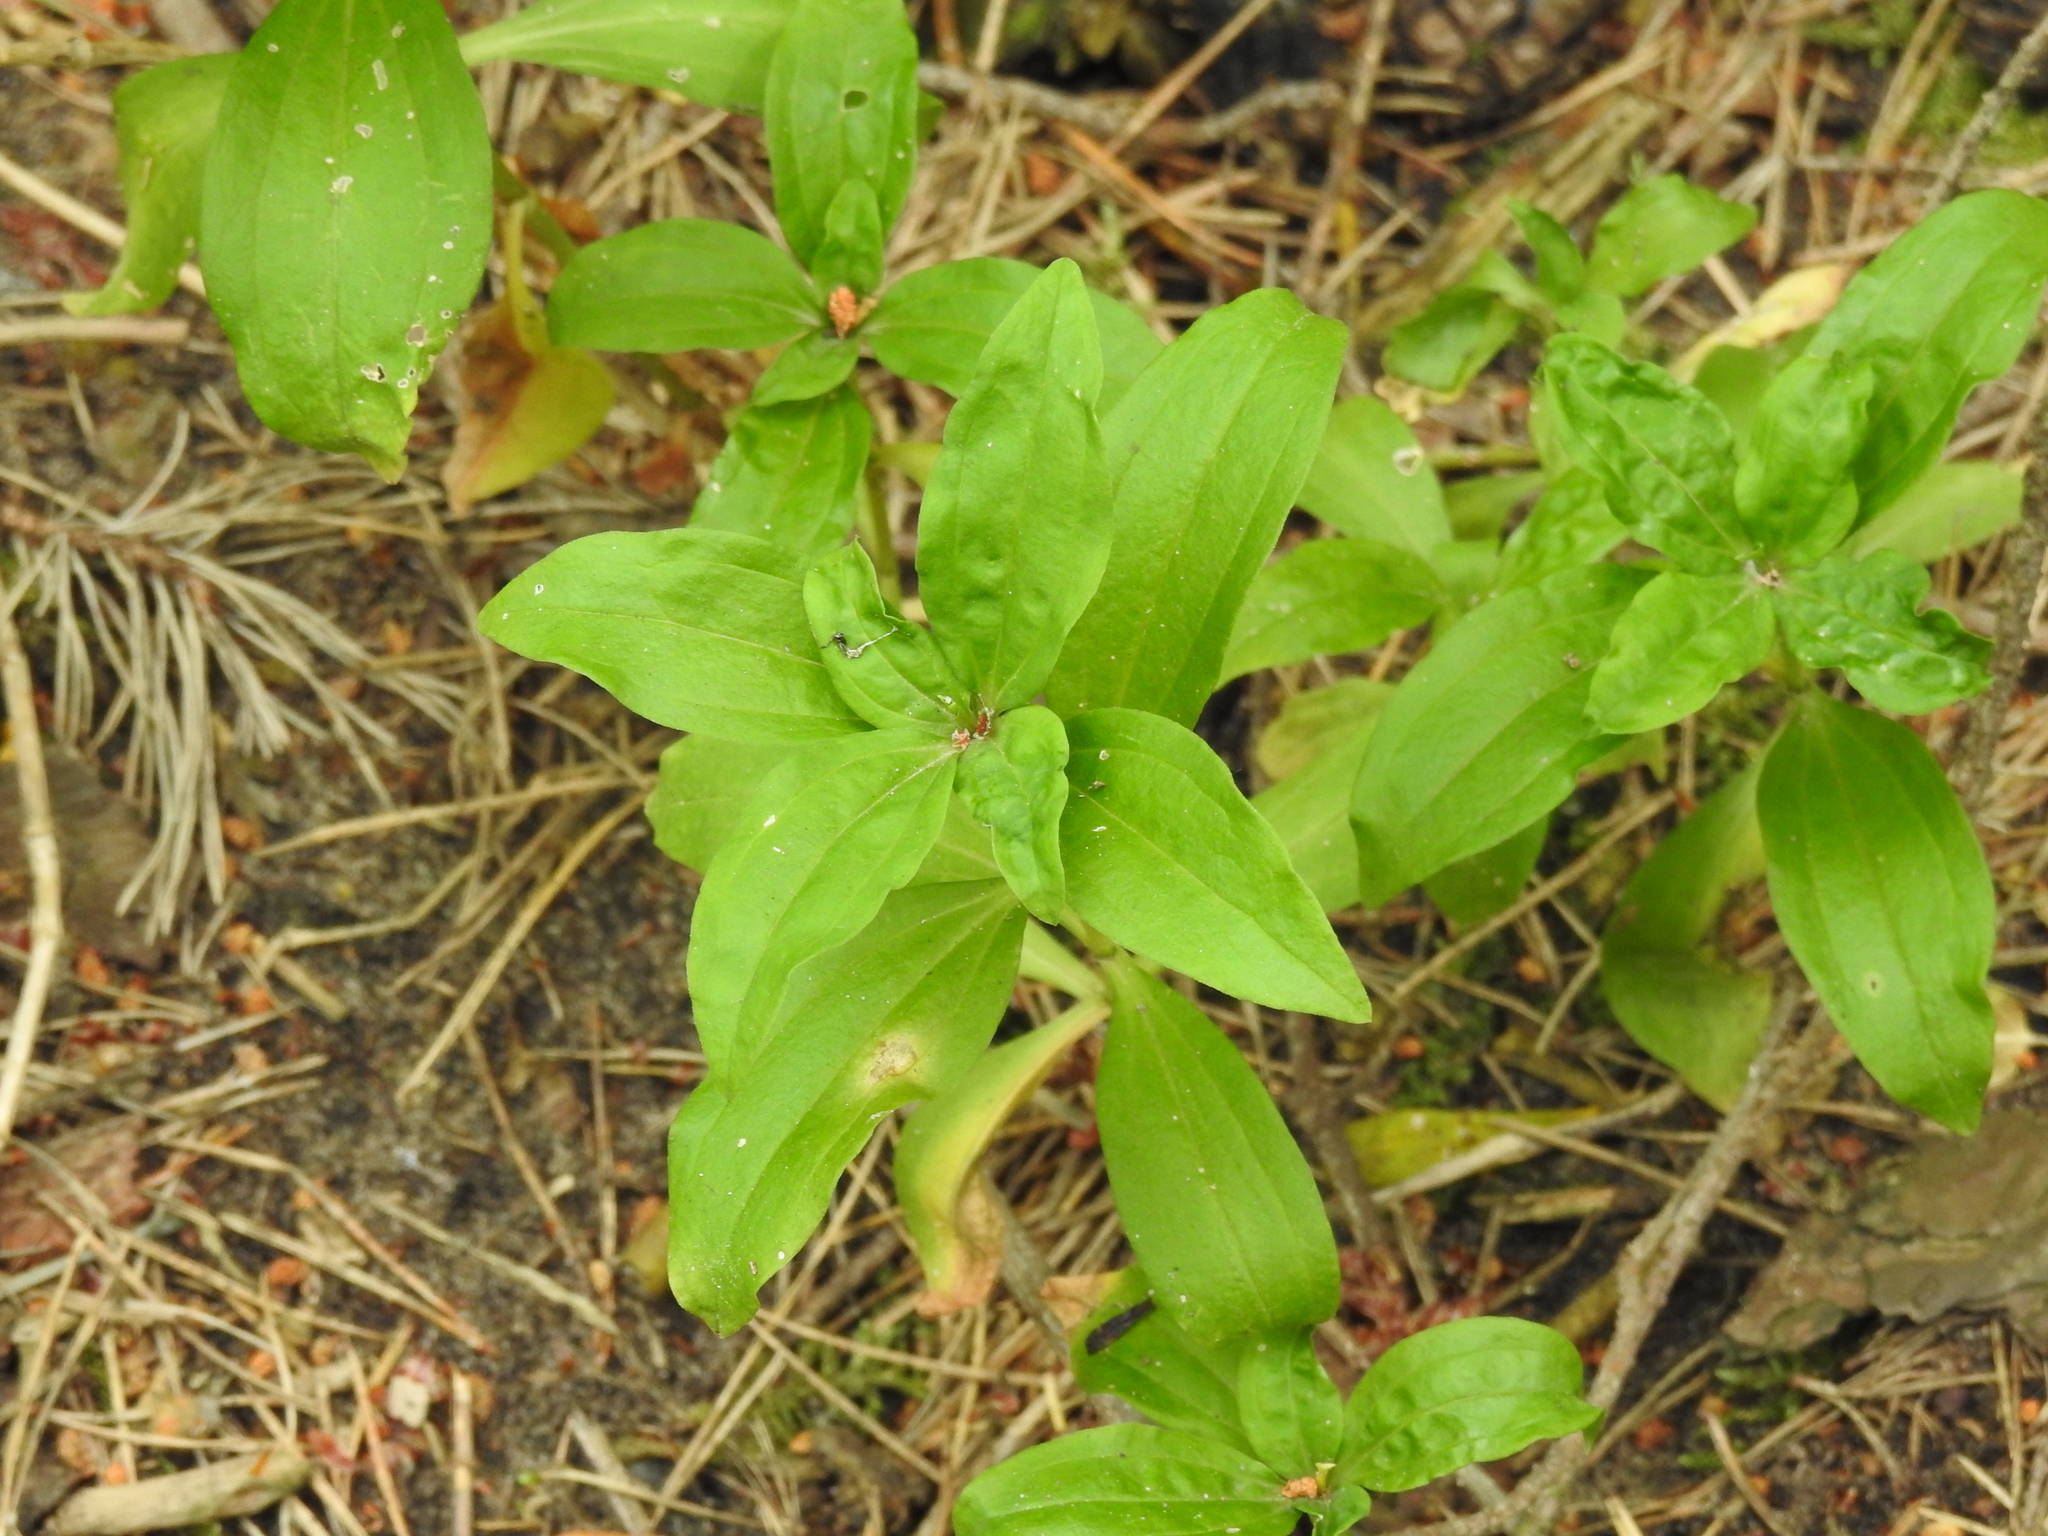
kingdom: Plantae
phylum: Tracheophyta
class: Magnoliopsida
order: Caryophyllales
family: Caryophyllaceae
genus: Saponaria
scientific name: Saponaria officinalis
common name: Soapwort
